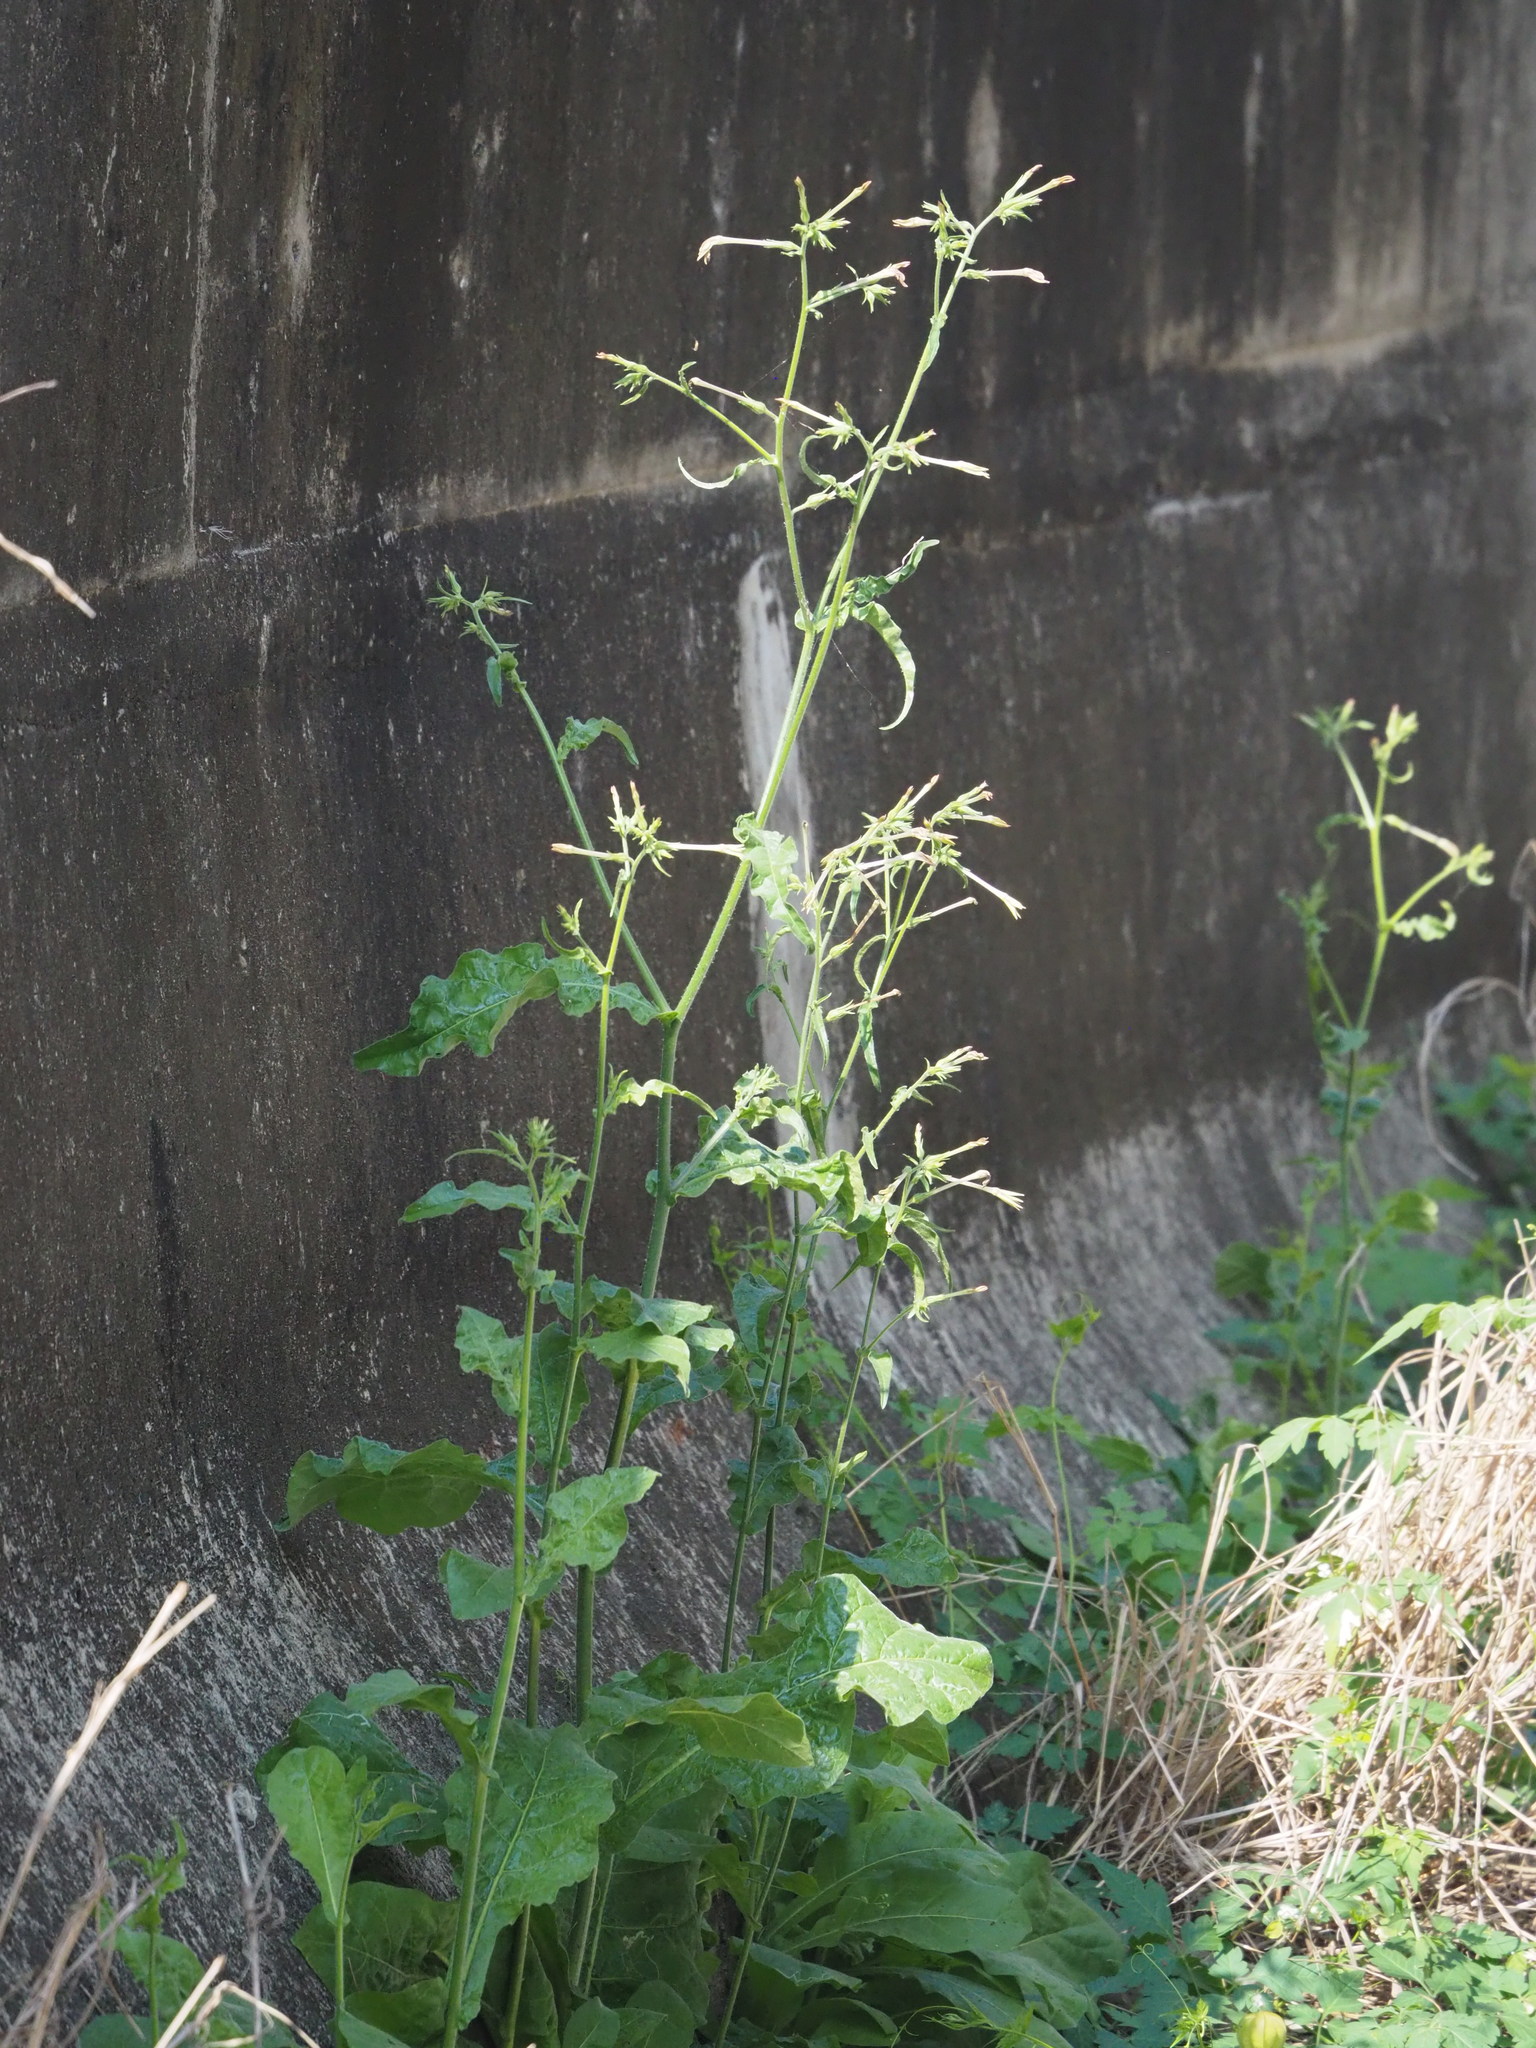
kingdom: Plantae
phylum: Tracheophyta
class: Magnoliopsida
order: Solanales
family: Solanaceae
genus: Nicotiana
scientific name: Nicotiana plumbaginifolia
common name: Tex-mex tobacco
